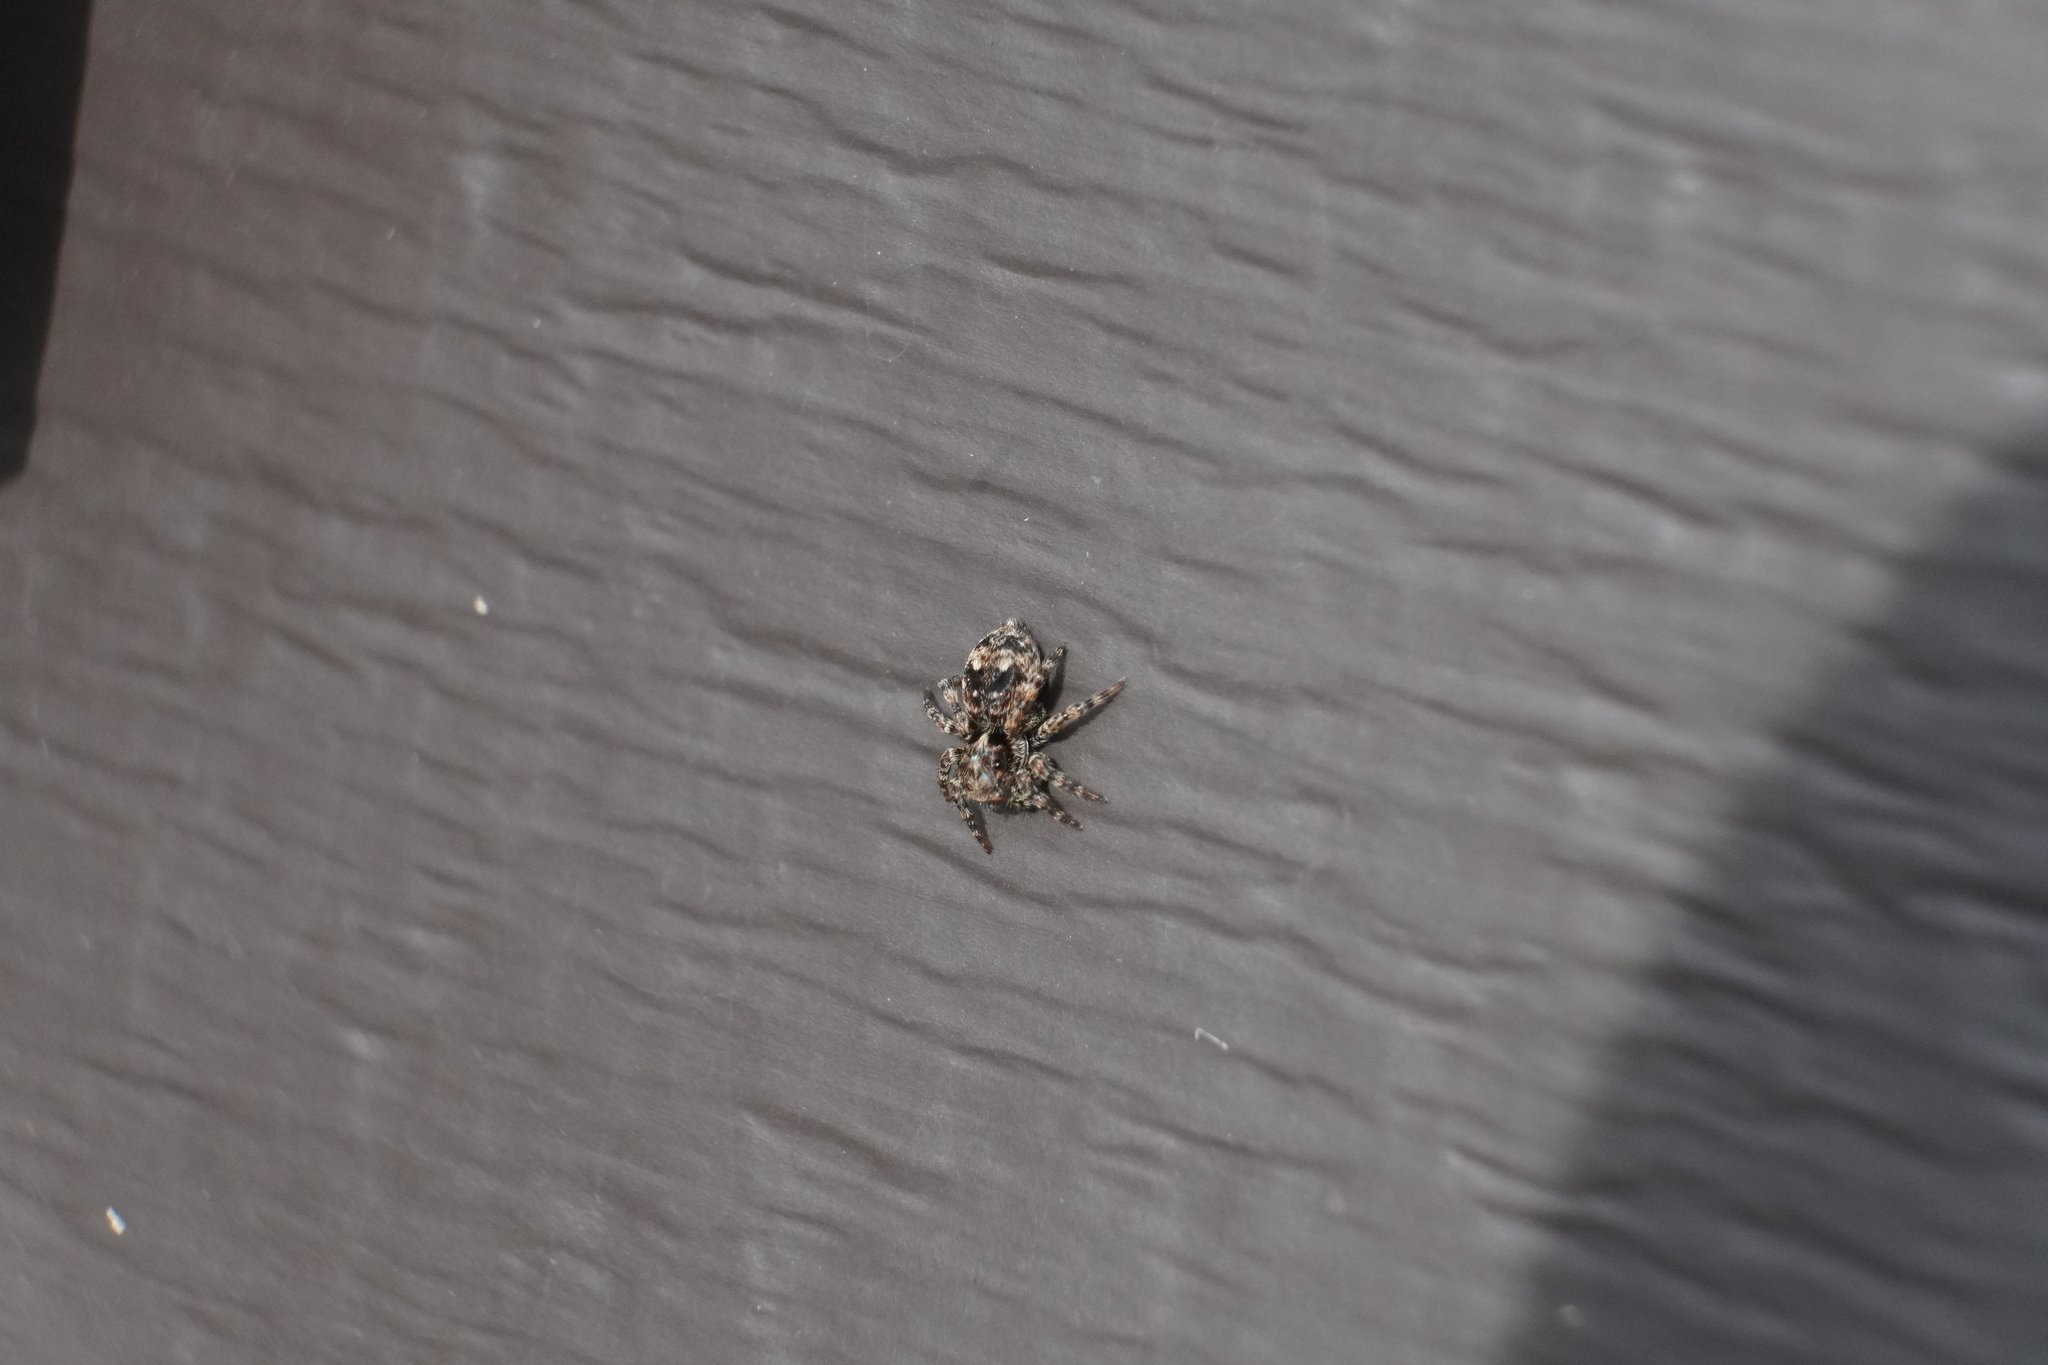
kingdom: Animalia
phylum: Arthropoda
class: Arachnida
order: Araneae
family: Salticidae
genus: Attulus
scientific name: Attulus fasciger
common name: Asiatic wall jumping spider
